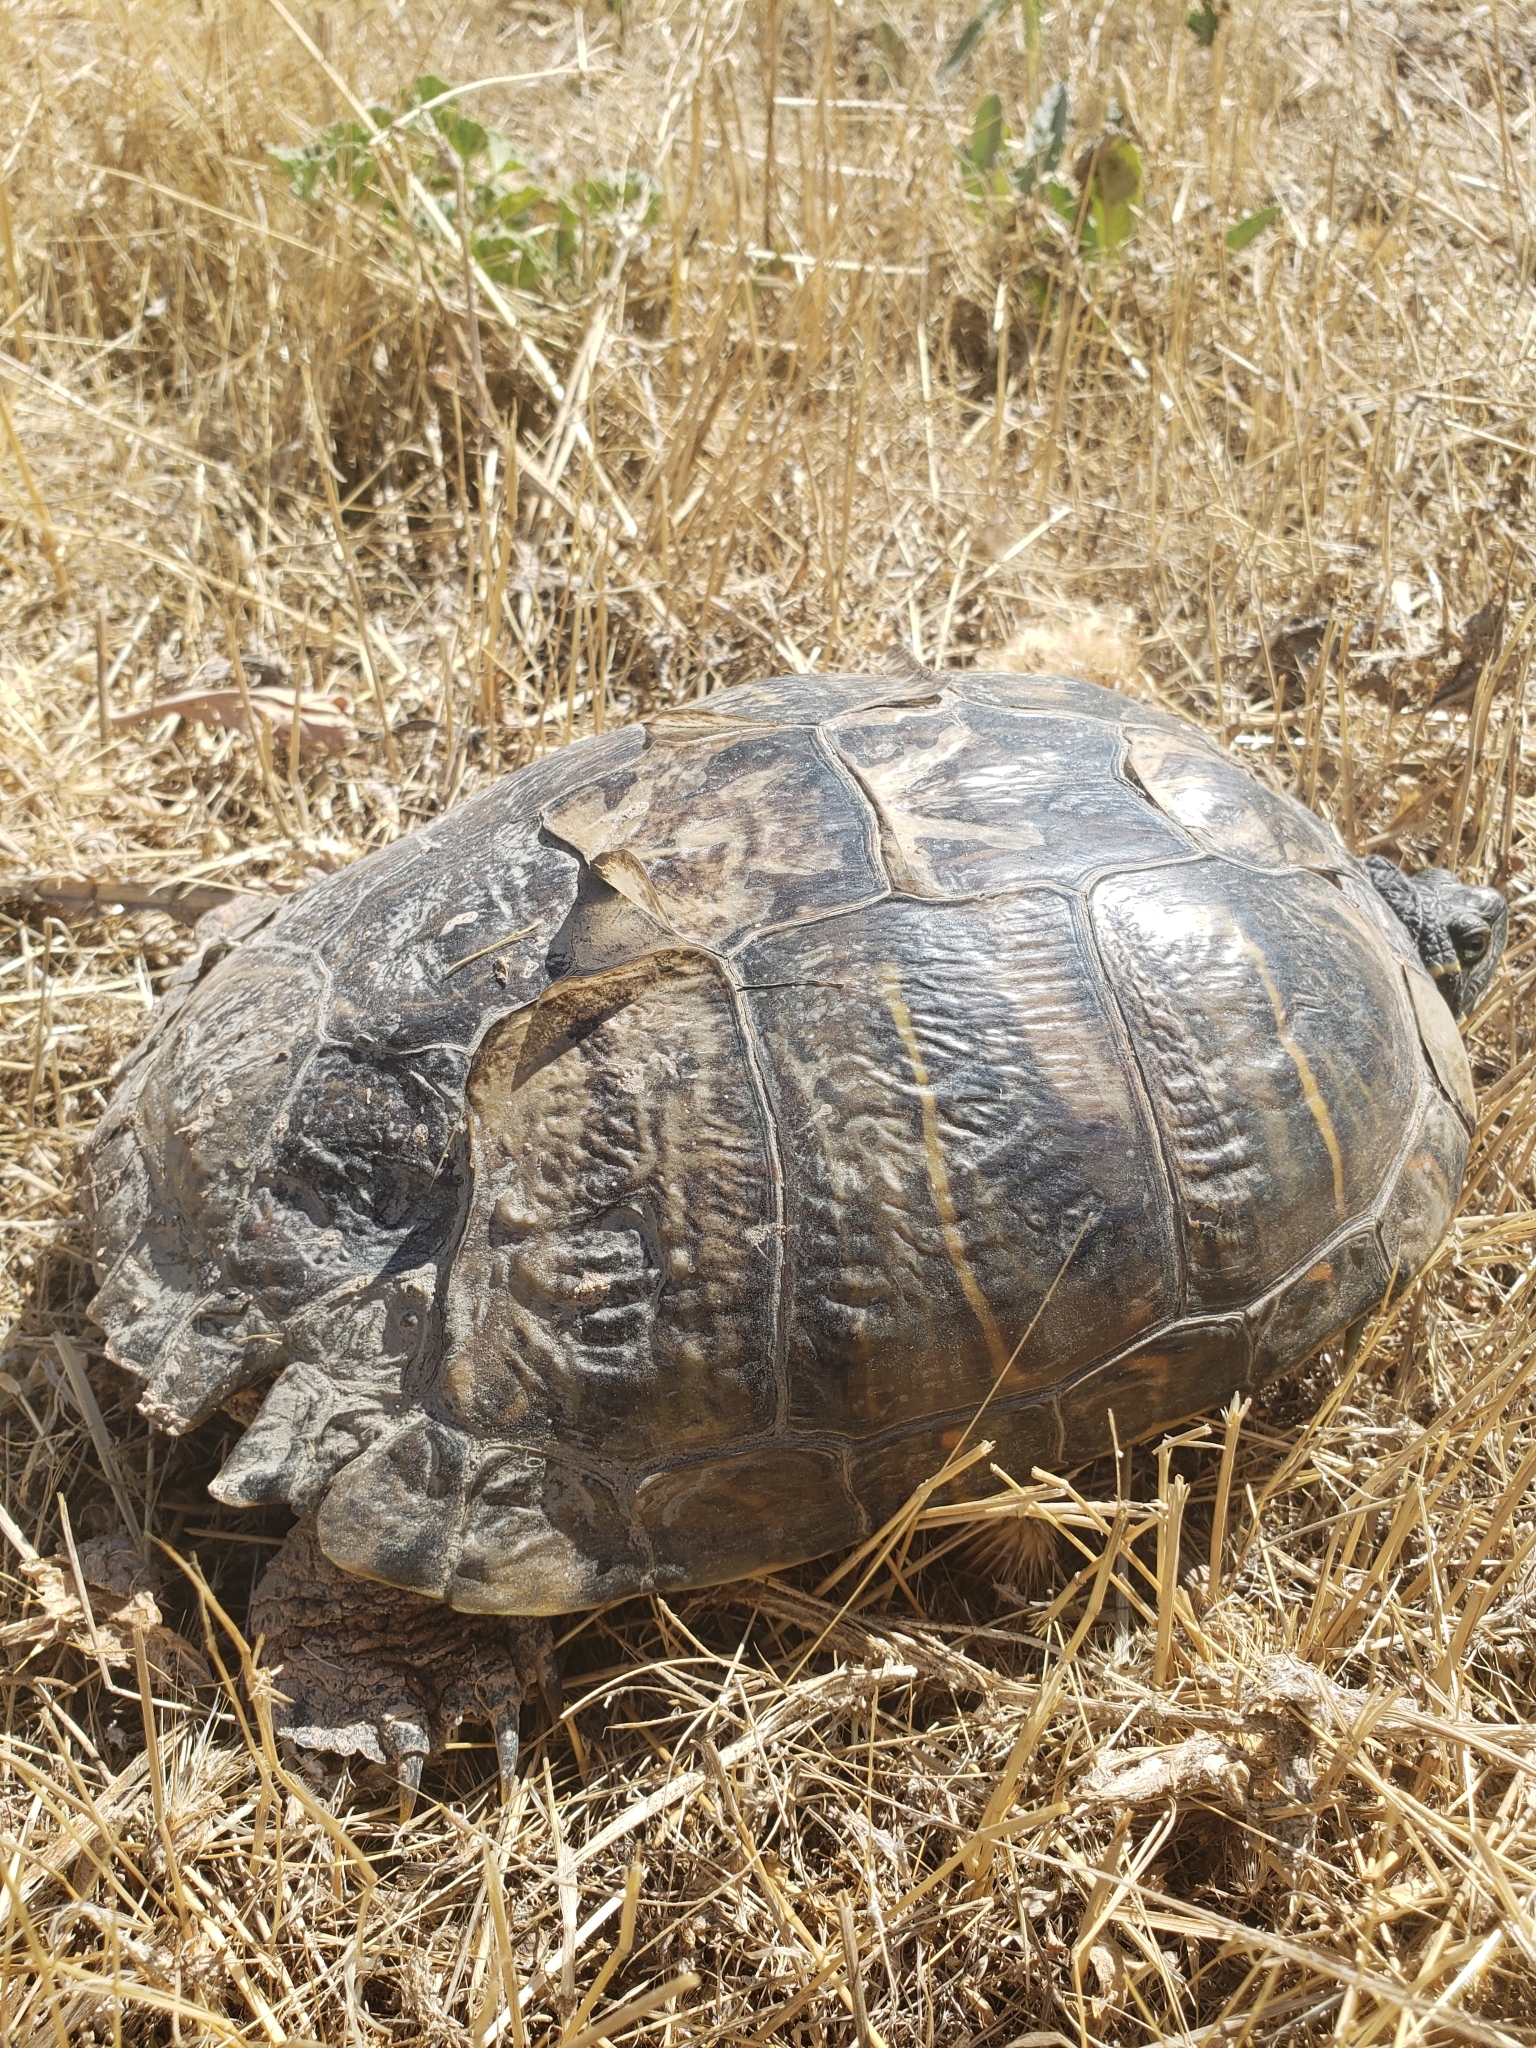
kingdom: Animalia
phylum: Chordata
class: Testudines
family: Emydidae
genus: Trachemys
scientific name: Trachemys scripta
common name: Slider
